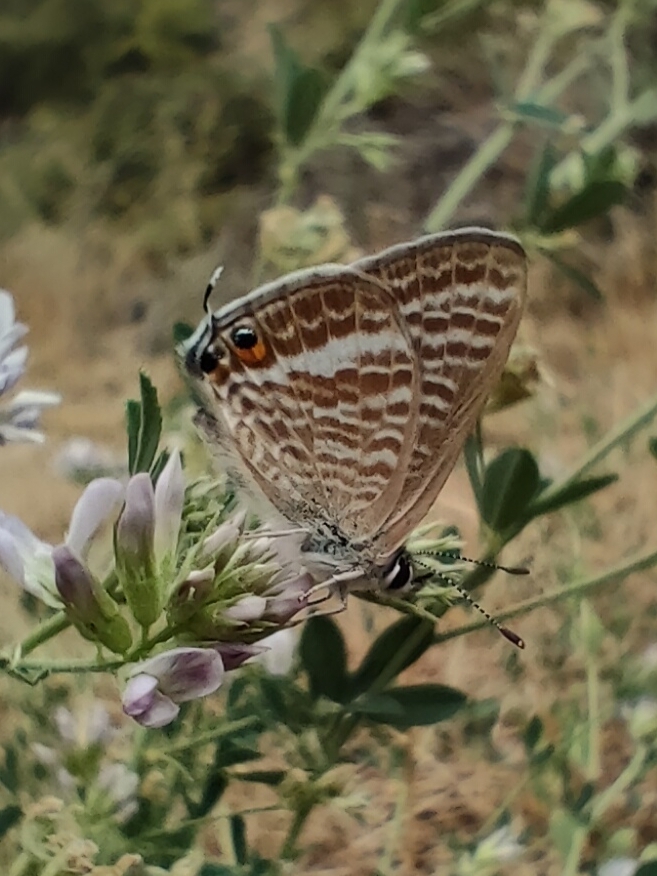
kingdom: Animalia
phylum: Arthropoda
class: Insecta
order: Lepidoptera
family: Lycaenidae
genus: Lampides
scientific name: Lampides boeticus
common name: Long-tailed blue
